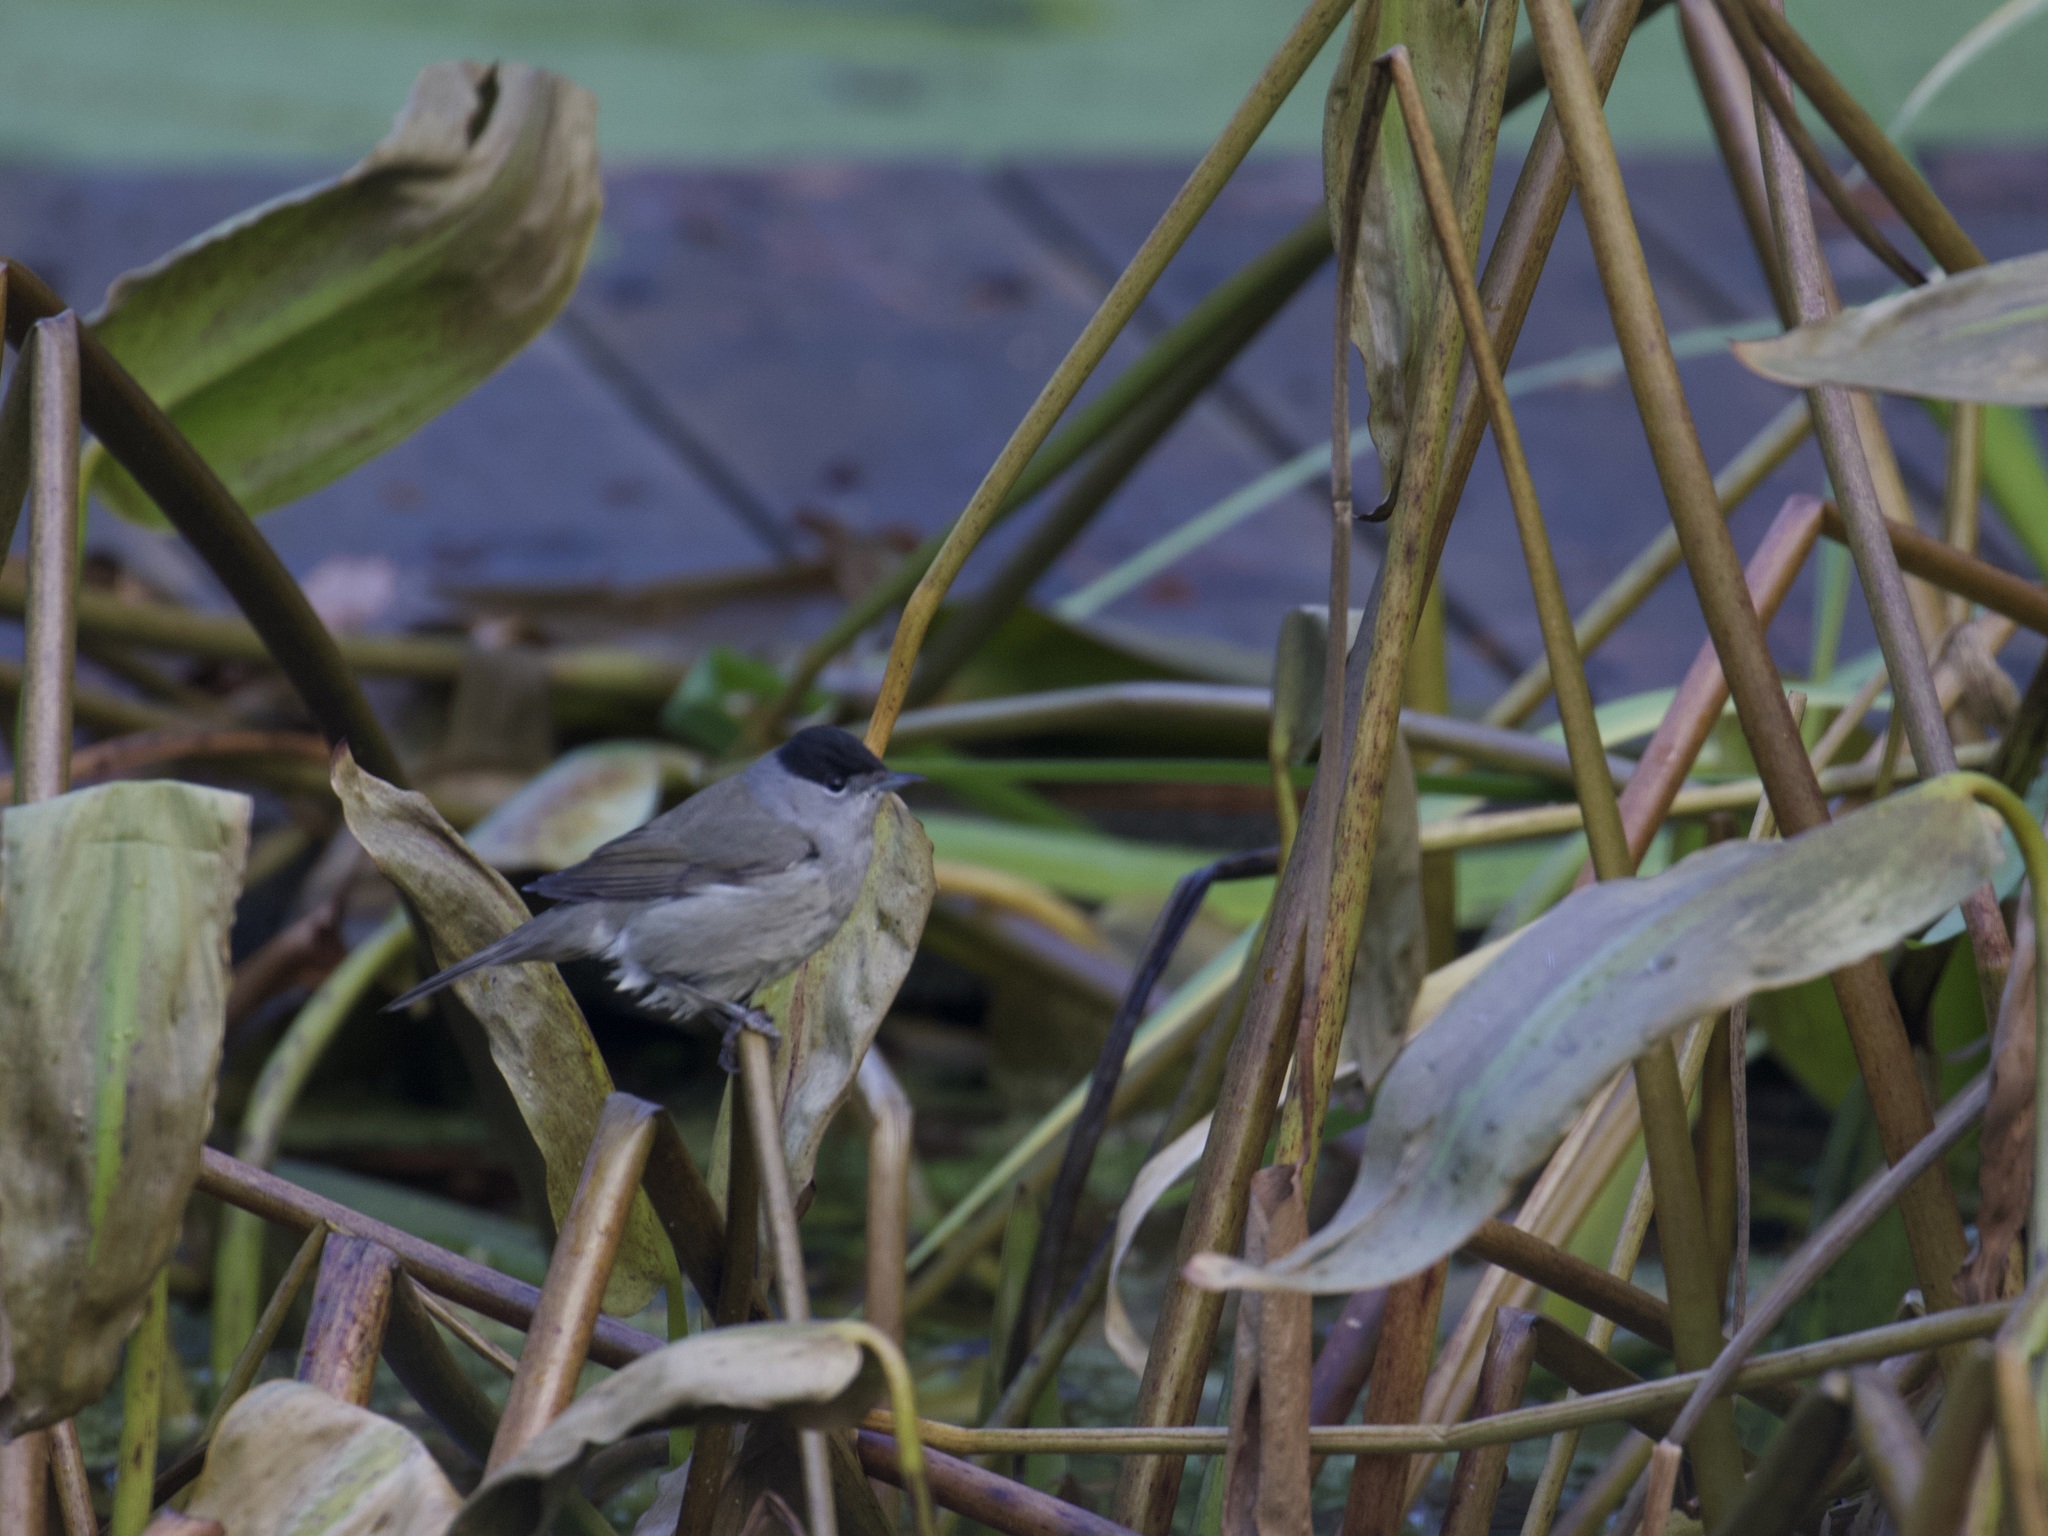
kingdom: Animalia
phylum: Chordata
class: Aves
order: Passeriformes
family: Sylviidae
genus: Sylvia
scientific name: Sylvia atricapilla
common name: Eurasian blackcap
